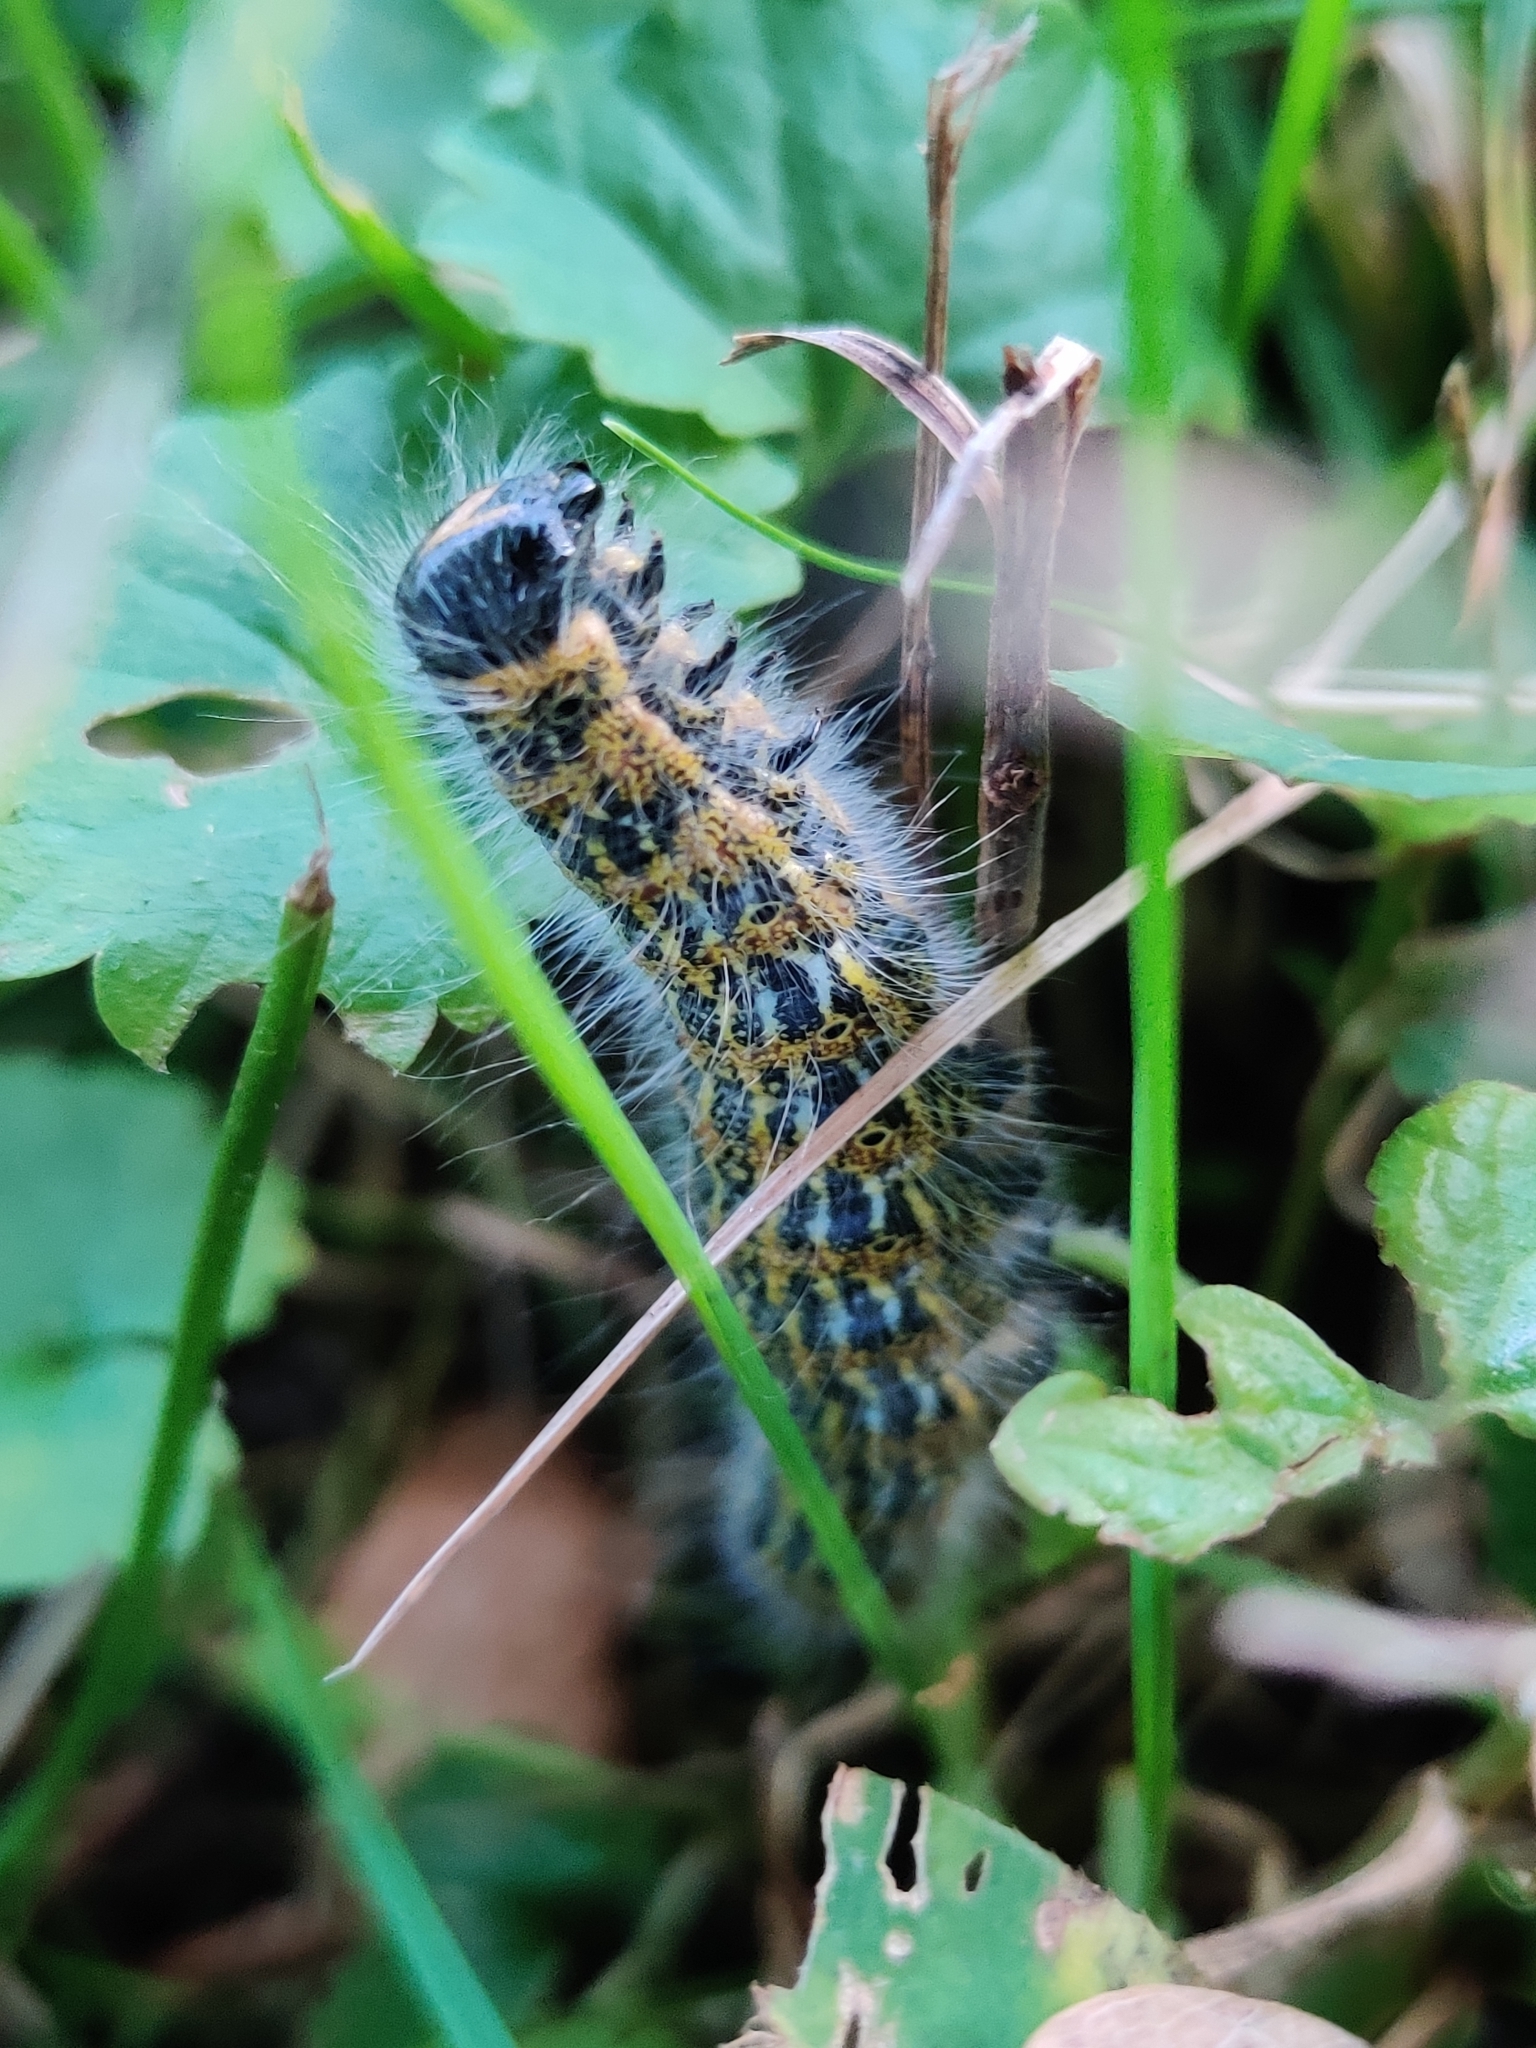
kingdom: Animalia
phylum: Arthropoda
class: Insecta
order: Lepidoptera
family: Notodontidae
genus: Phalera
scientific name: Phalera bucephala
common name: Buff-tip
